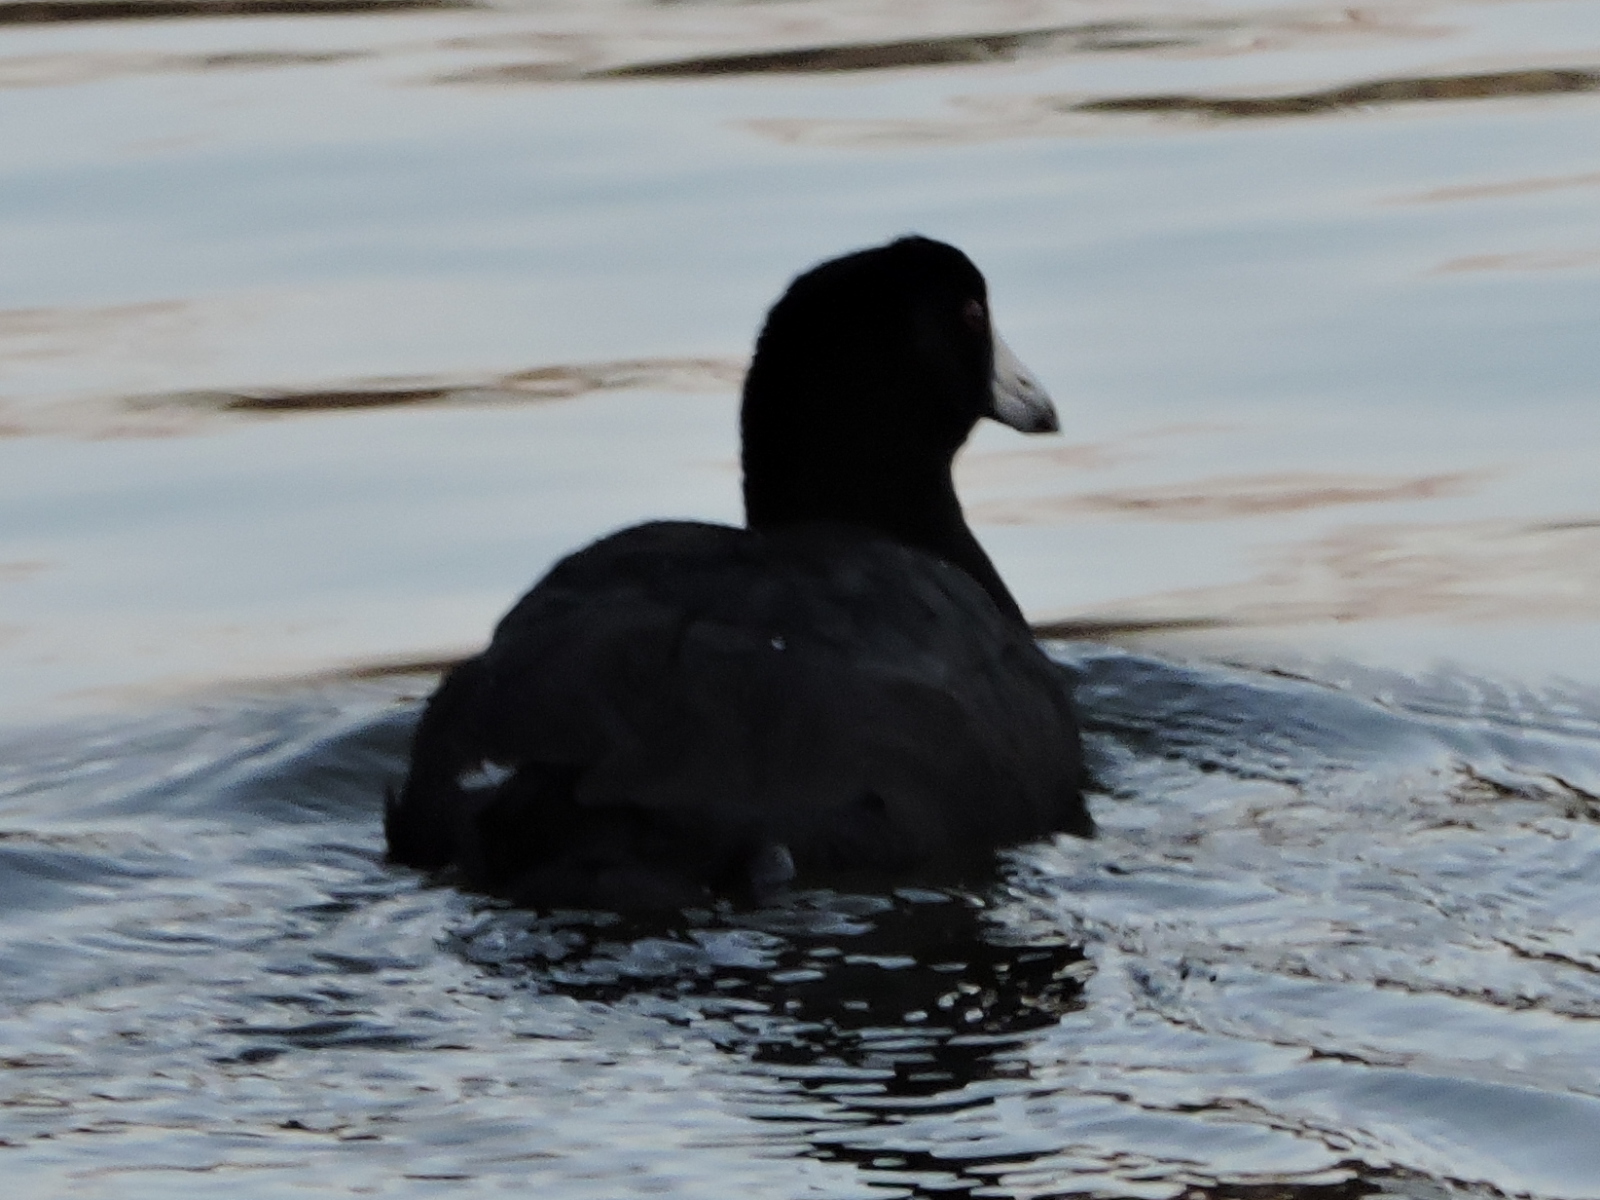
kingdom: Animalia
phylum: Chordata
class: Aves
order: Gruiformes
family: Rallidae
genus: Fulica
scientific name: Fulica americana
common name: American coot
